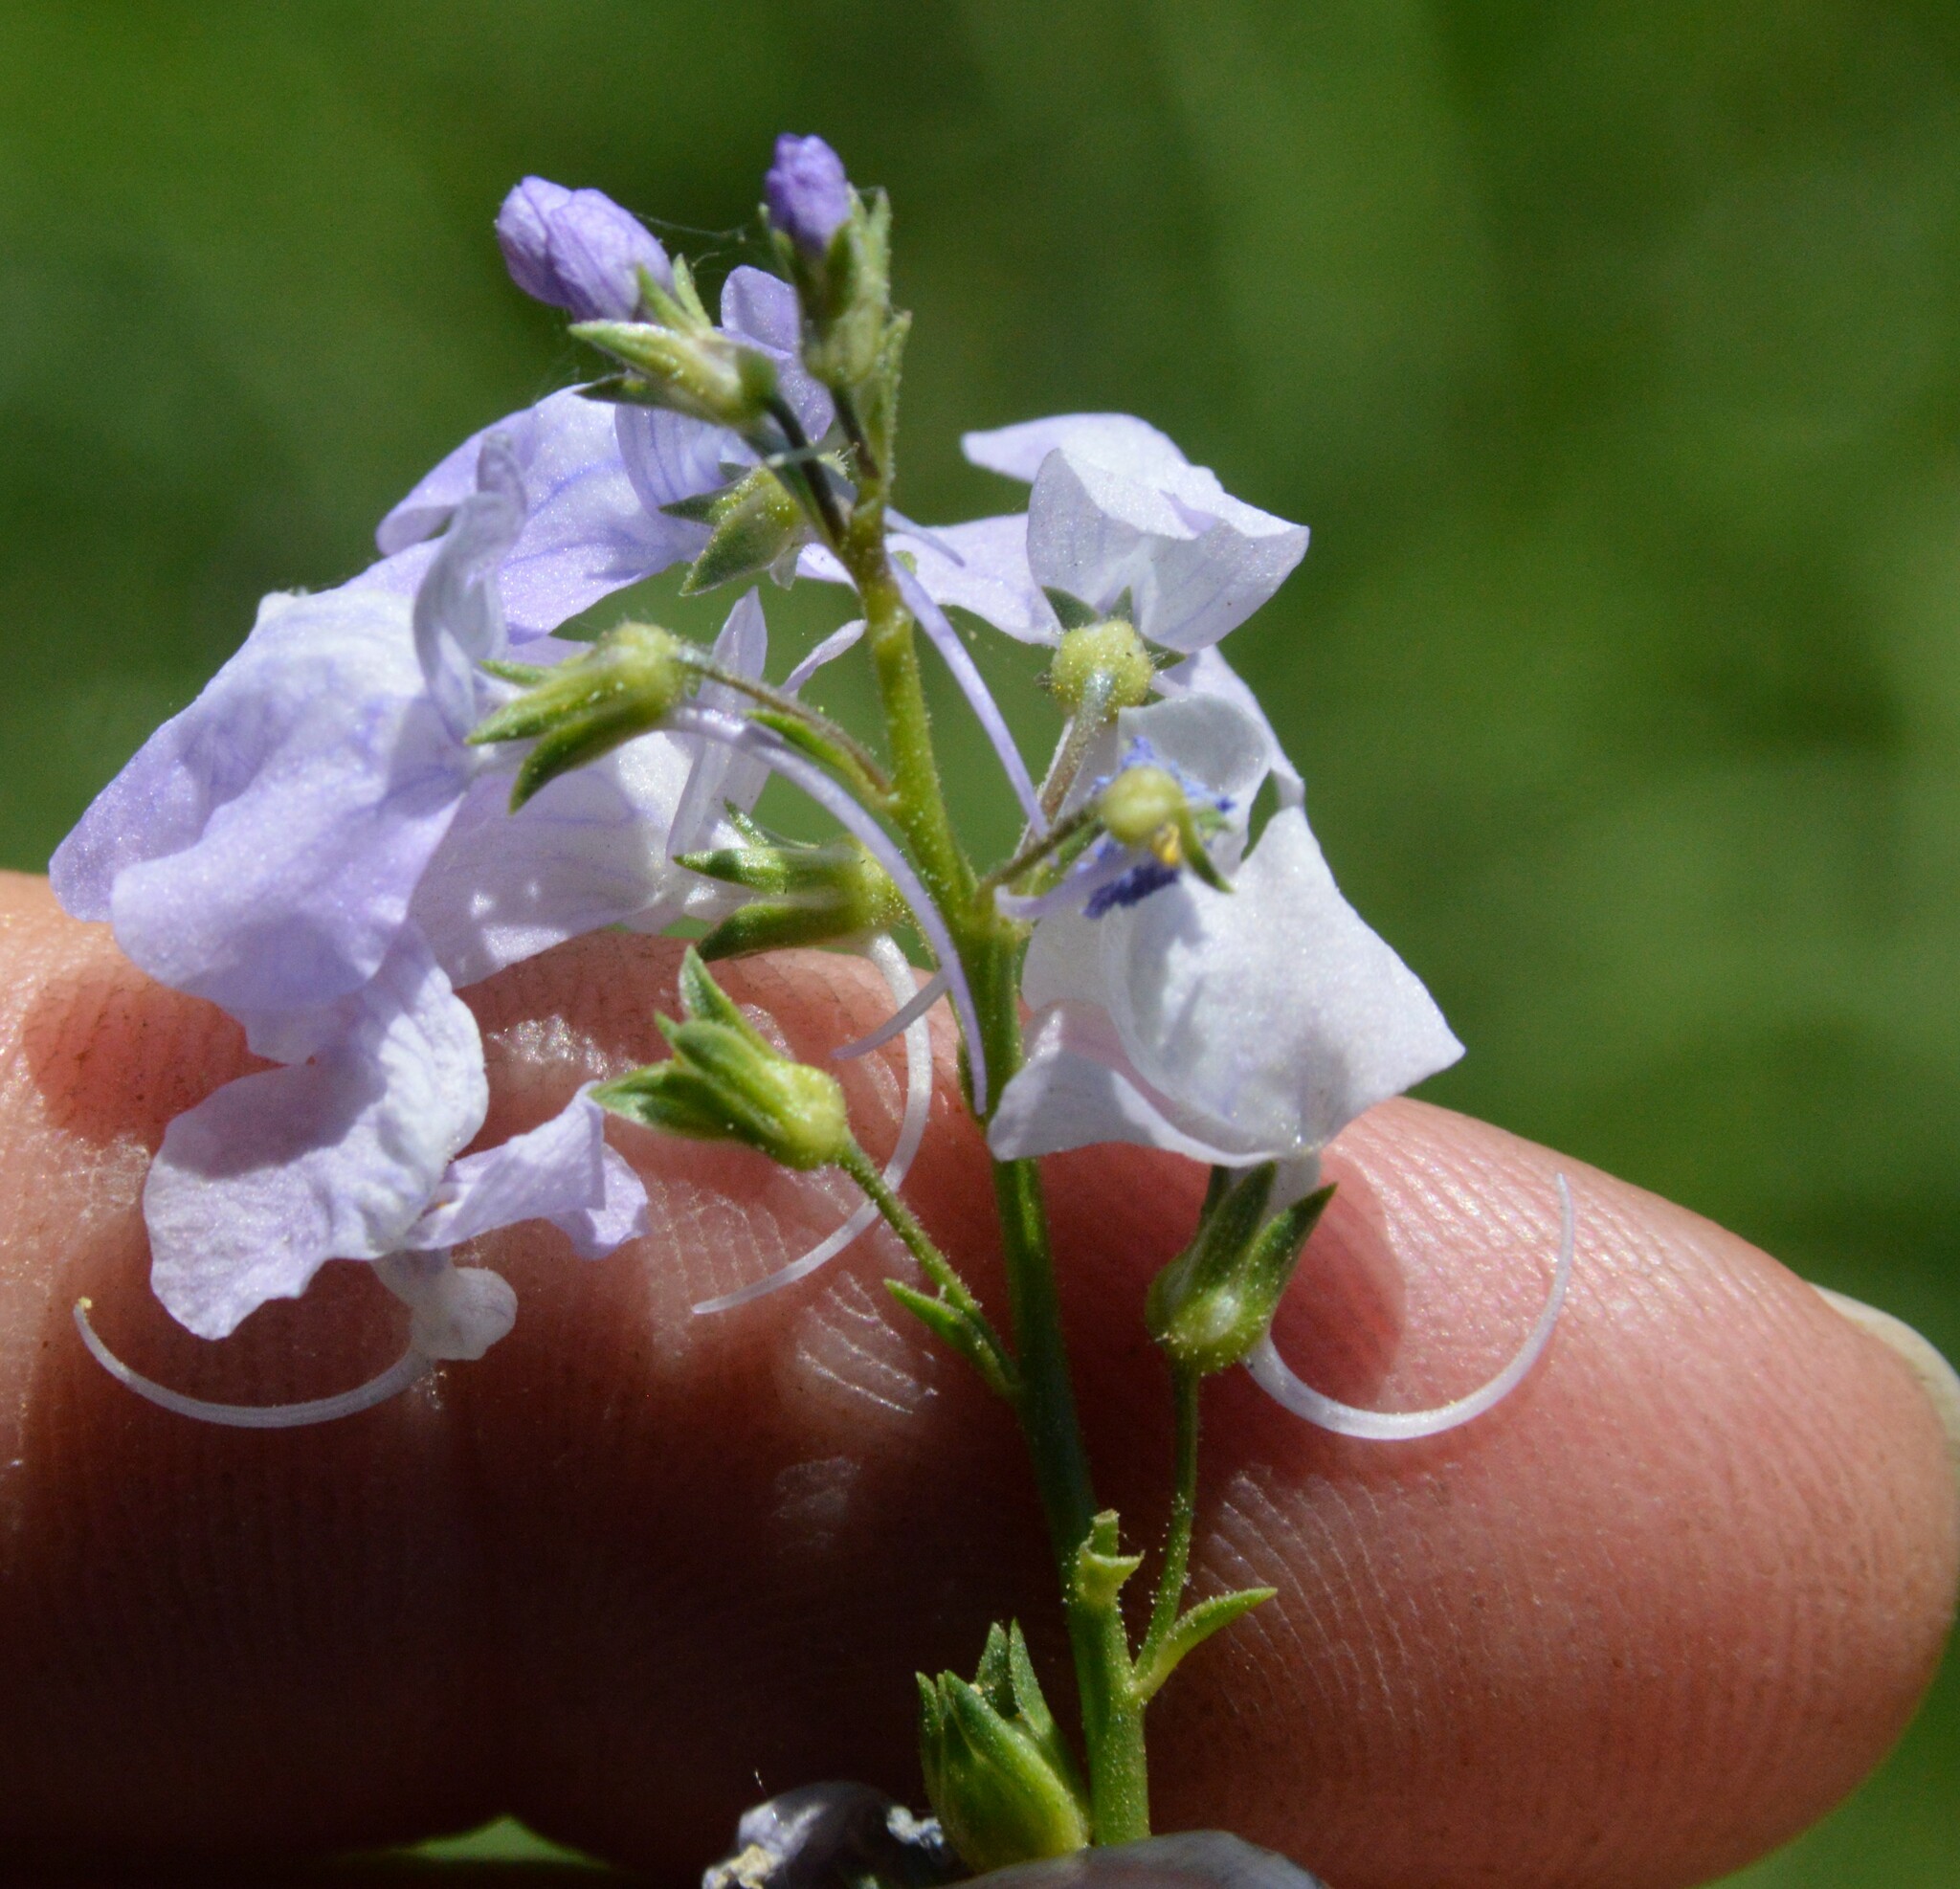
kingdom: Plantae
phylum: Tracheophyta
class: Magnoliopsida
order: Lamiales
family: Plantaginaceae
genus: Nuttallanthus
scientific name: Nuttallanthus texanus
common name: Texas toadflax
